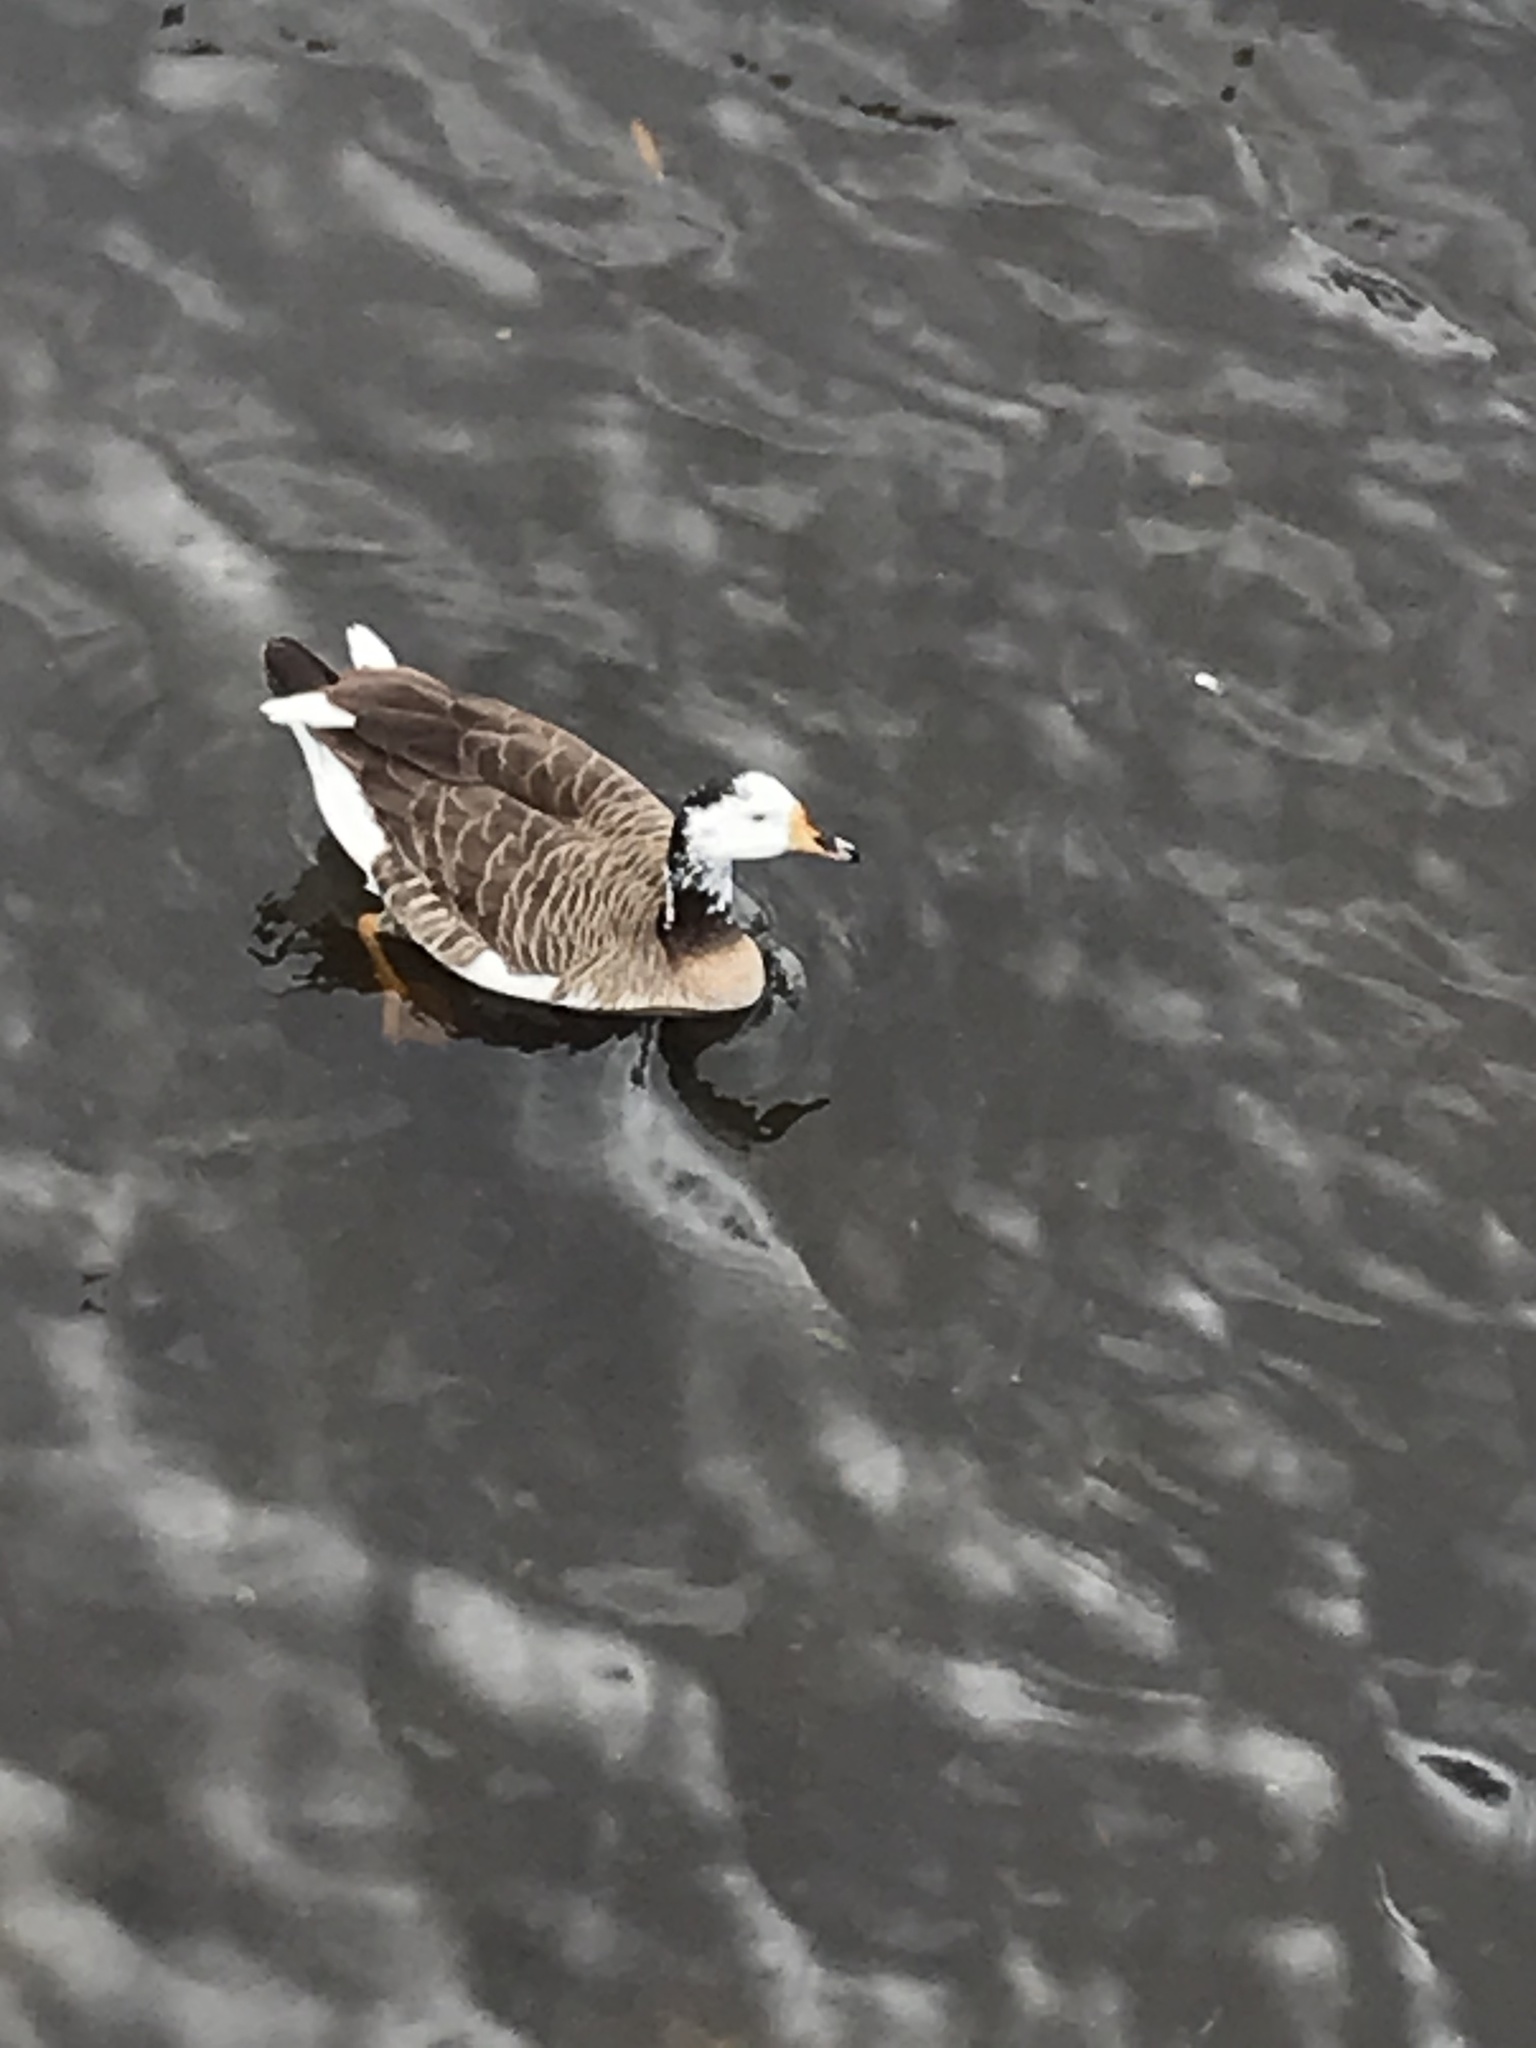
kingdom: Animalia
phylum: Chordata
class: Aves
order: Anseriformes
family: Anatidae
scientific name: Anatidae
